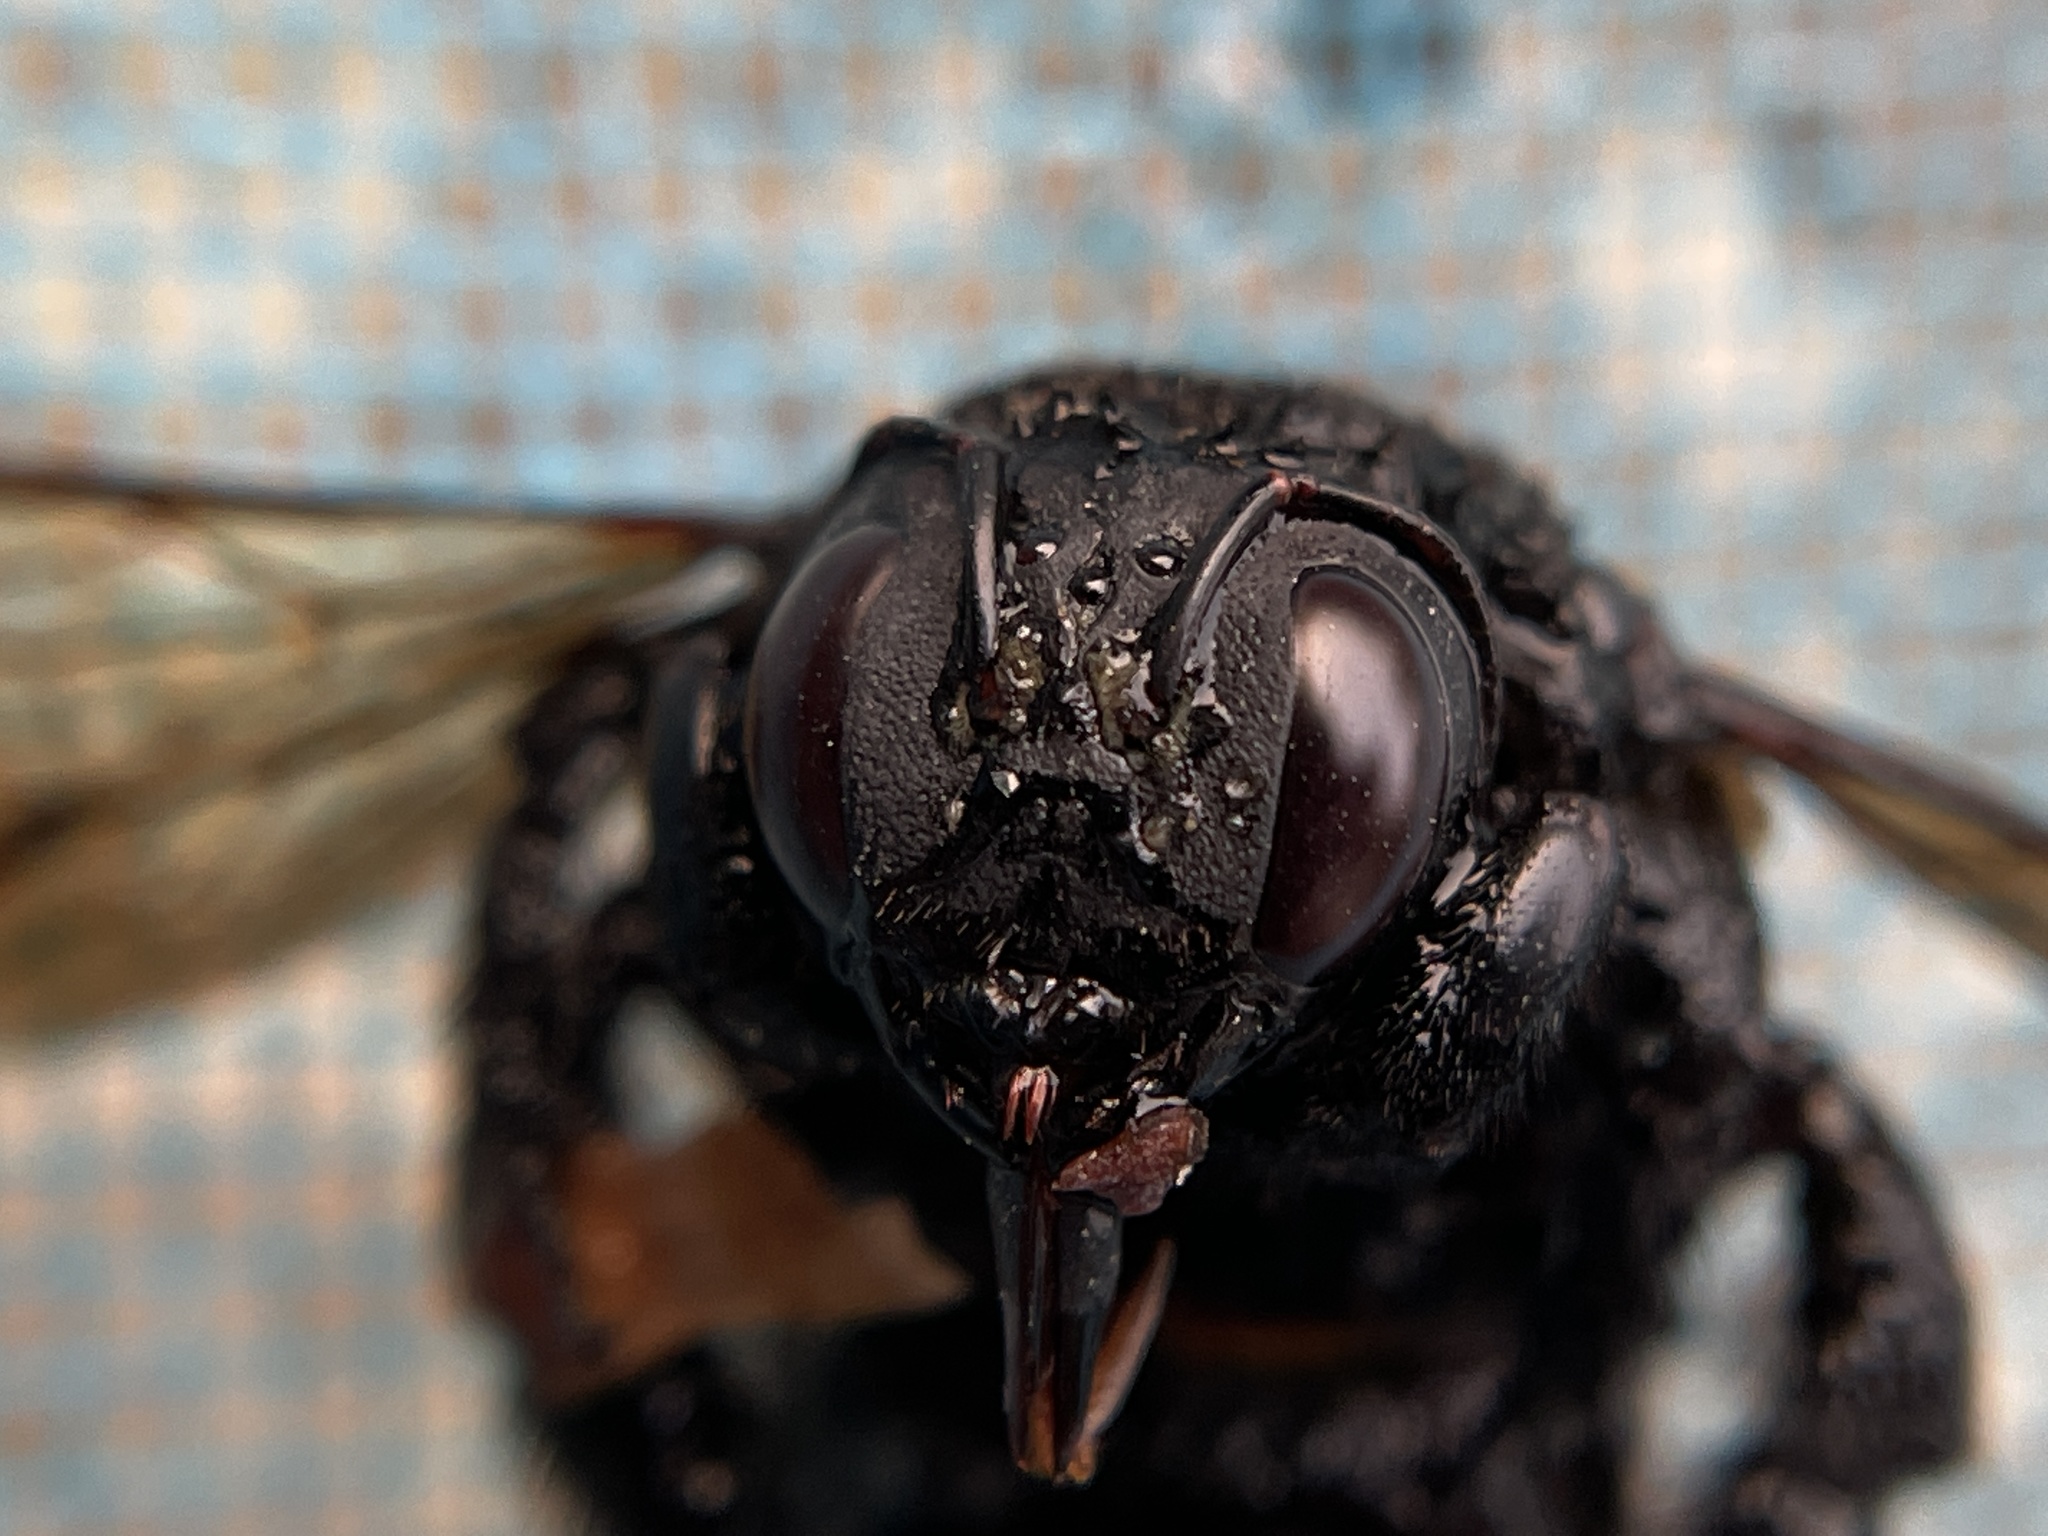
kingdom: Animalia
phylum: Arthropoda
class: Insecta
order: Hymenoptera
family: Apidae
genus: Xylocopa
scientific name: Xylocopa sonorina
